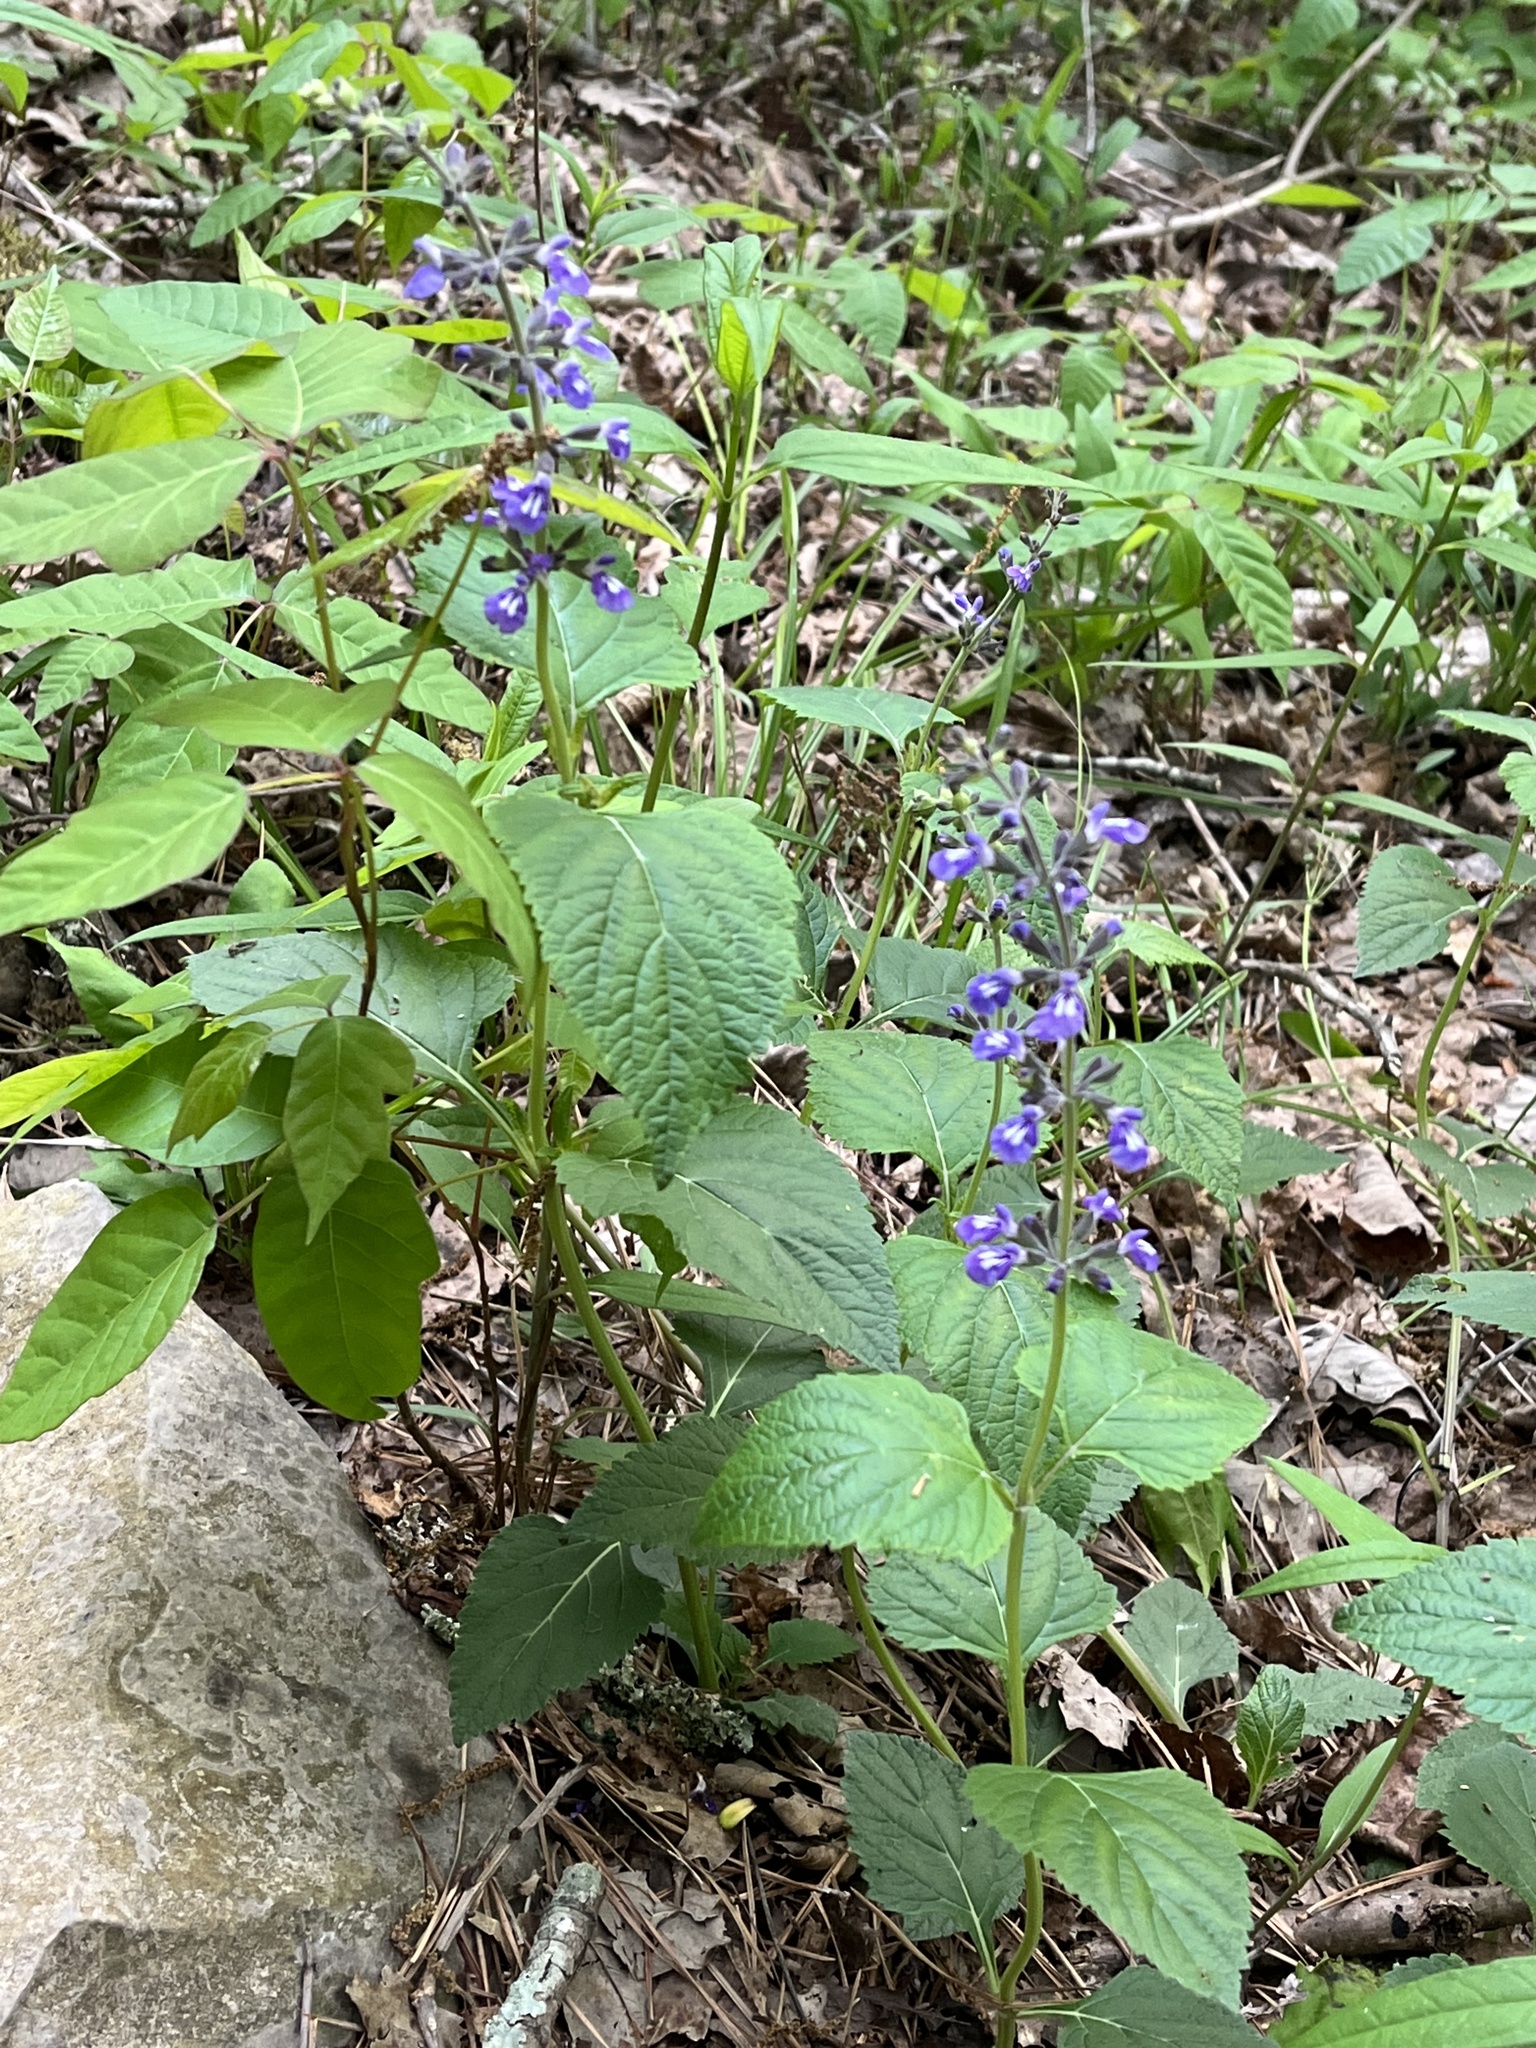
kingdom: Plantae
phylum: Tracheophyta
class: Magnoliopsida
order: Lamiales
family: Lamiaceae
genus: Salvia
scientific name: Salvia urticifolia
